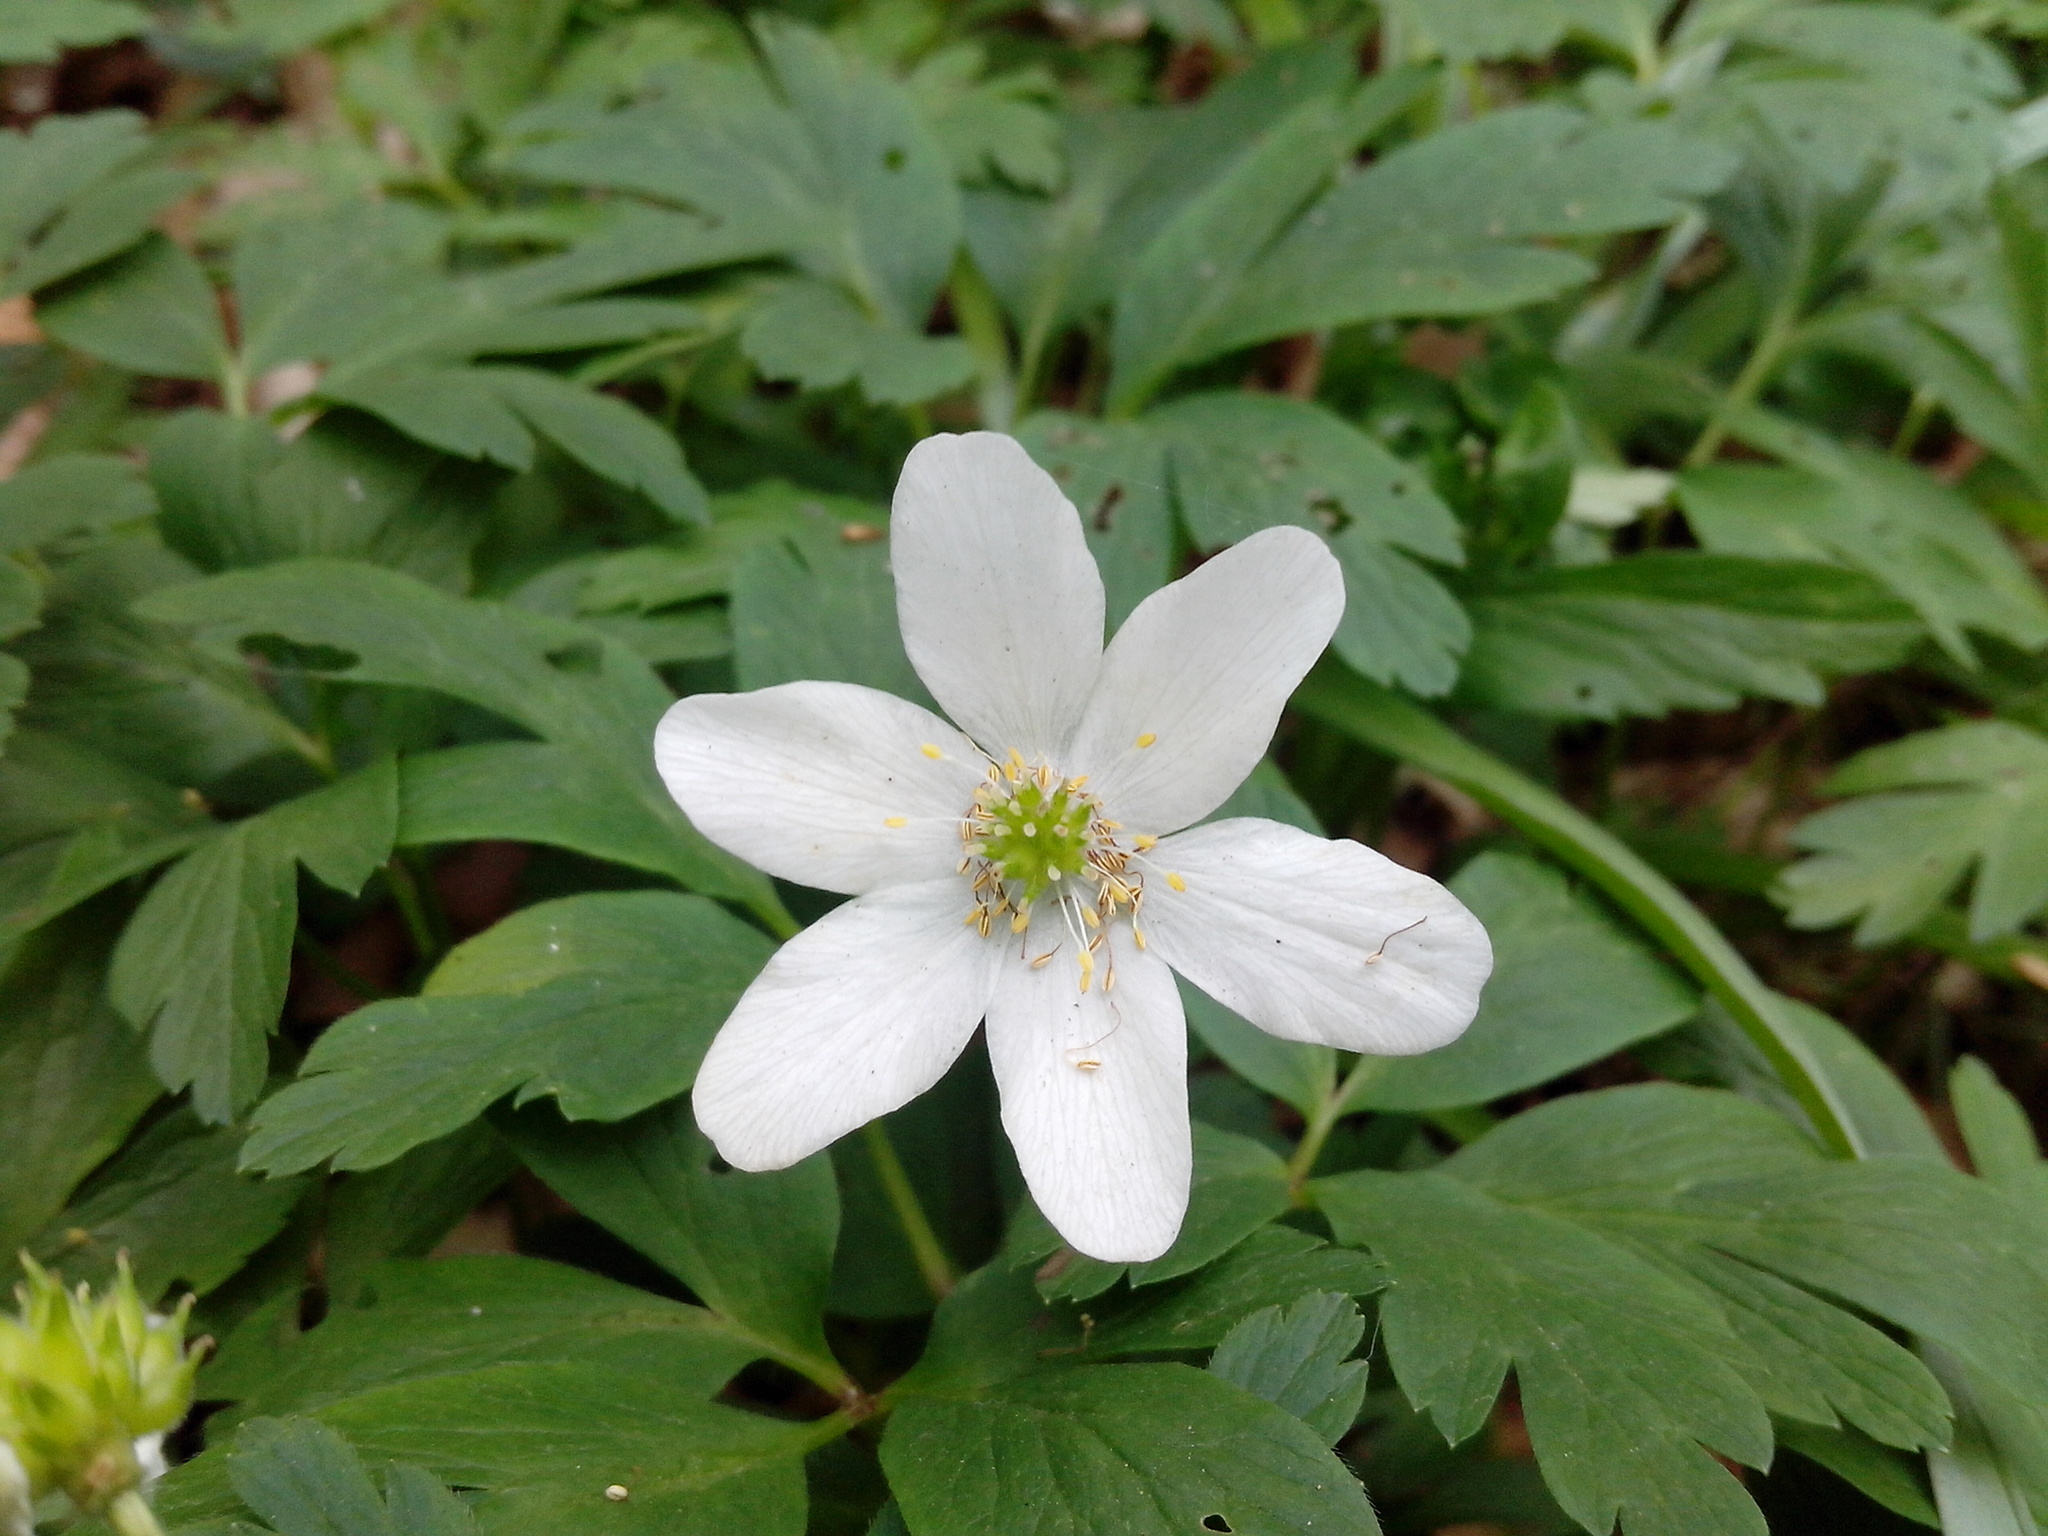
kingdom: Plantae
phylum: Tracheophyta
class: Magnoliopsida
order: Ranunculales
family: Ranunculaceae
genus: Anemone
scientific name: Anemone nemorosa
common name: Wood anemone
